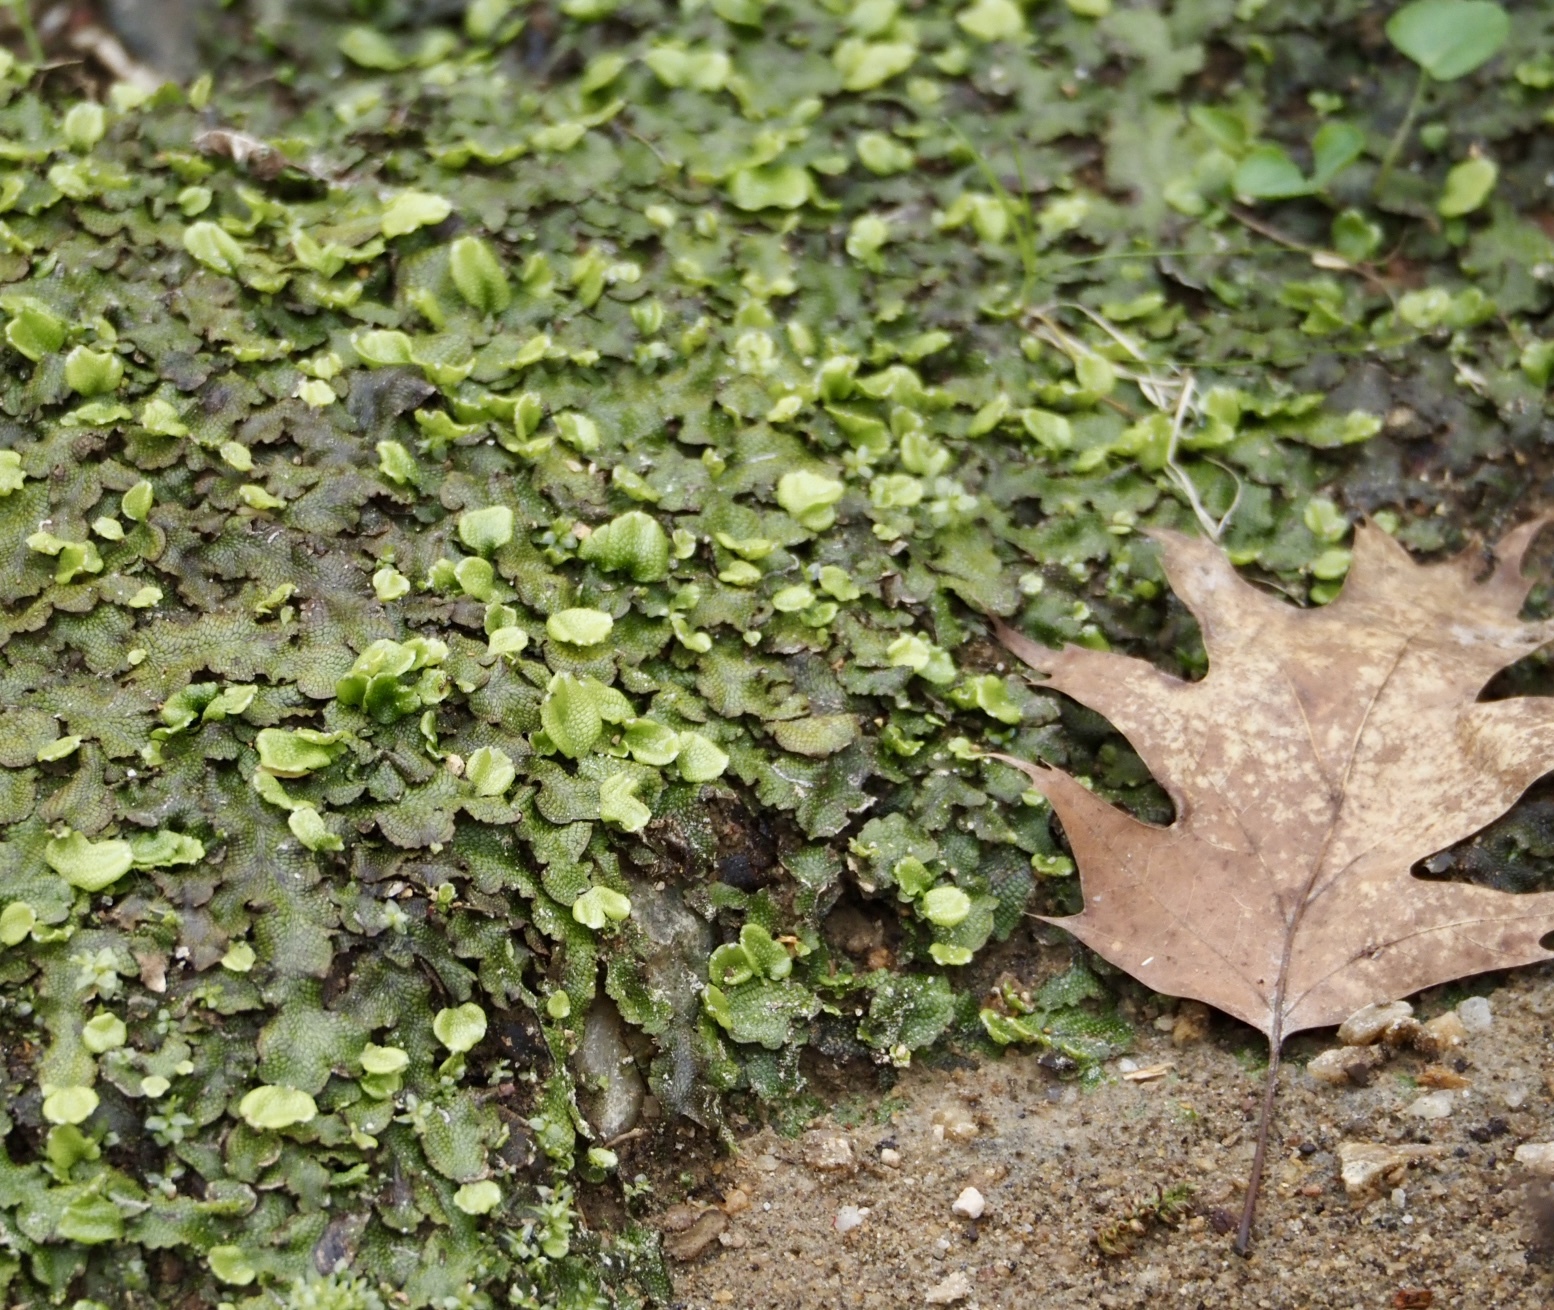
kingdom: Plantae
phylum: Marchantiophyta
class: Marchantiopsida
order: Marchantiales
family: Conocephalaceae
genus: Conocephalum
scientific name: Conocephalum salebrosum
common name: Cat-tongue liverwort
